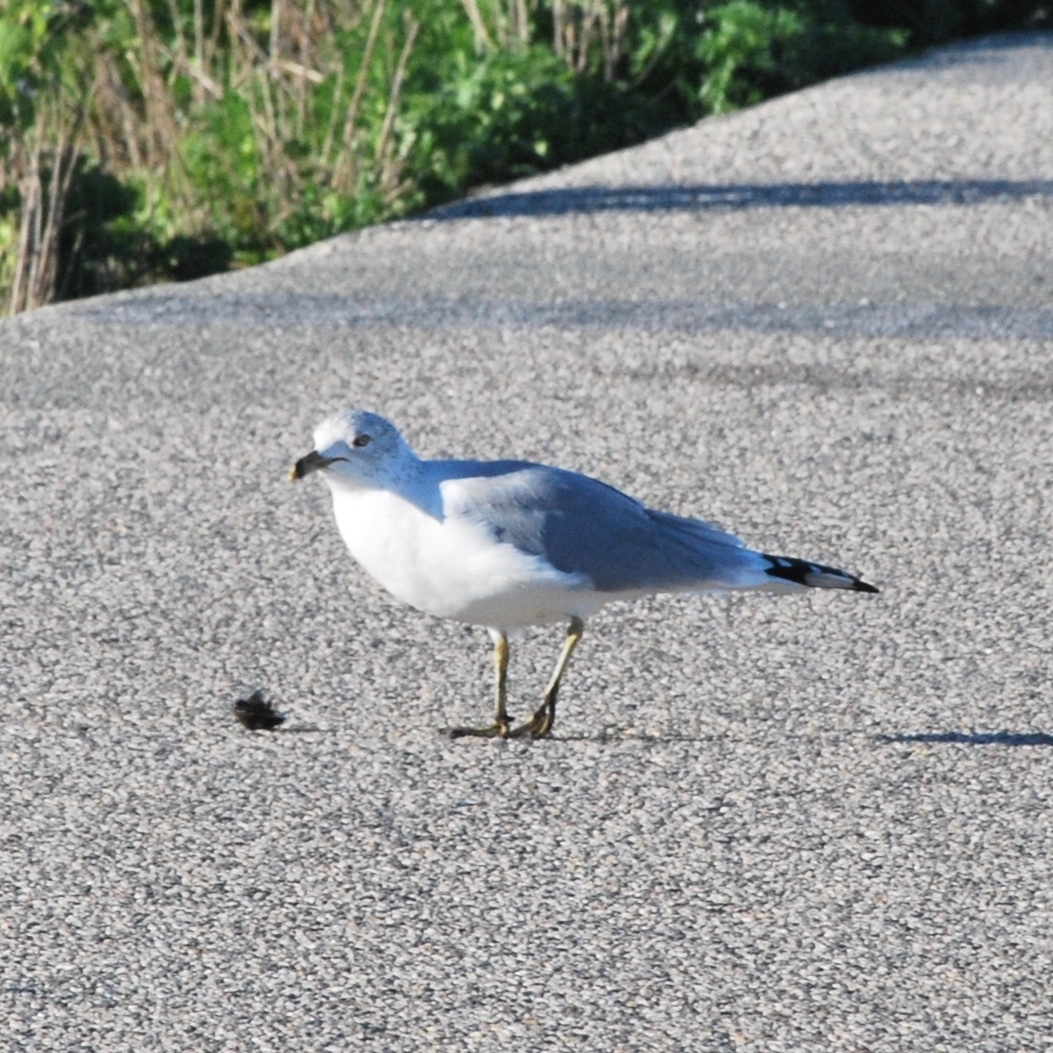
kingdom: Animalia
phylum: Chordata
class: Aves
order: Charadriiformes
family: Laridae
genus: Larus
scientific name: Larus delawarensis
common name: Ring-billed gull
